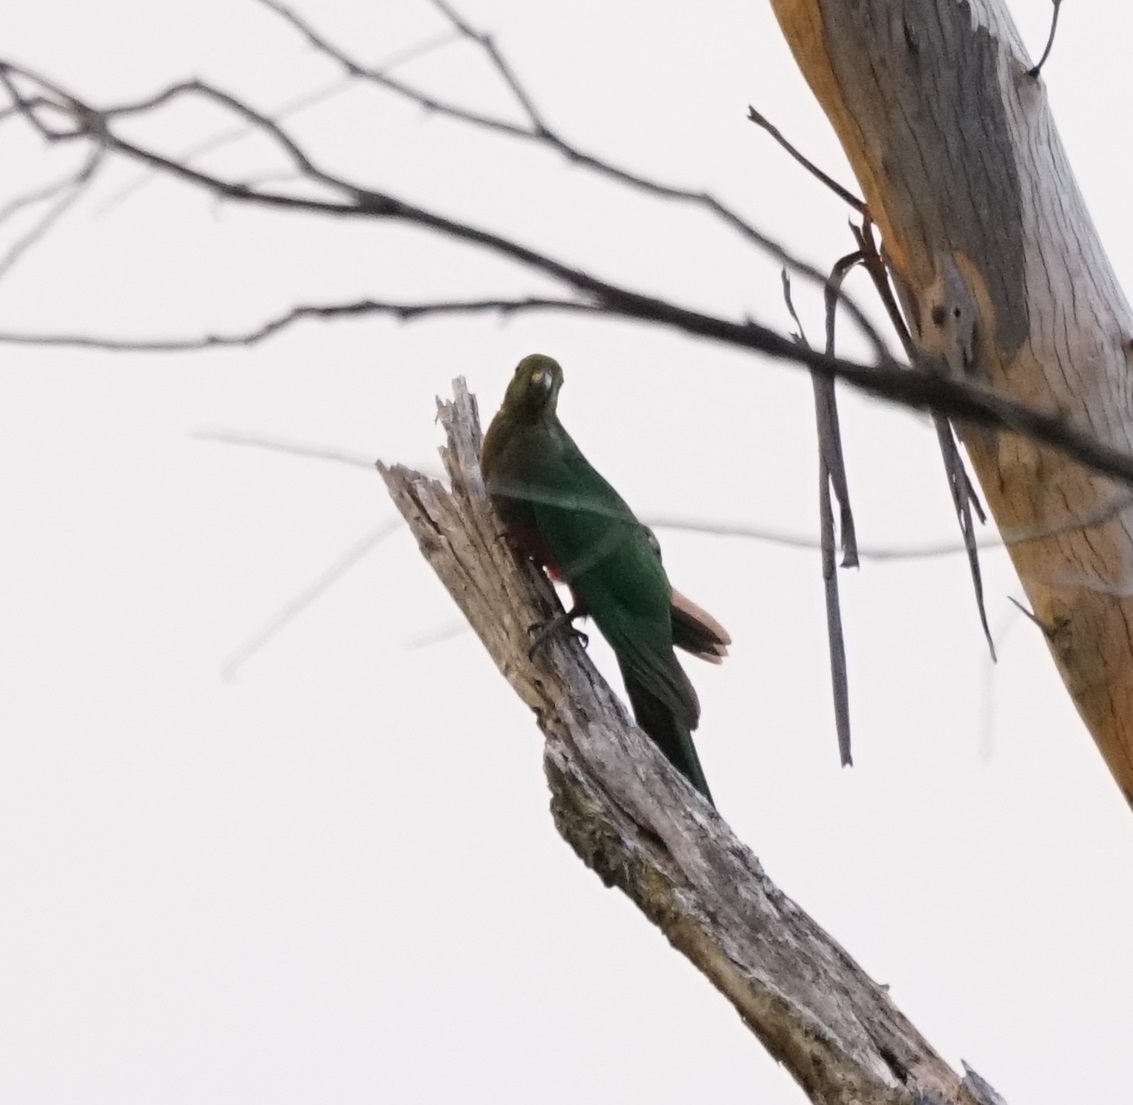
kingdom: Animalia
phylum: Chordata
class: Aves
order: Psittaciformes
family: Psittacidae
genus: Alisterus
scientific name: Alisterus scapularis
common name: Australian king parrot
